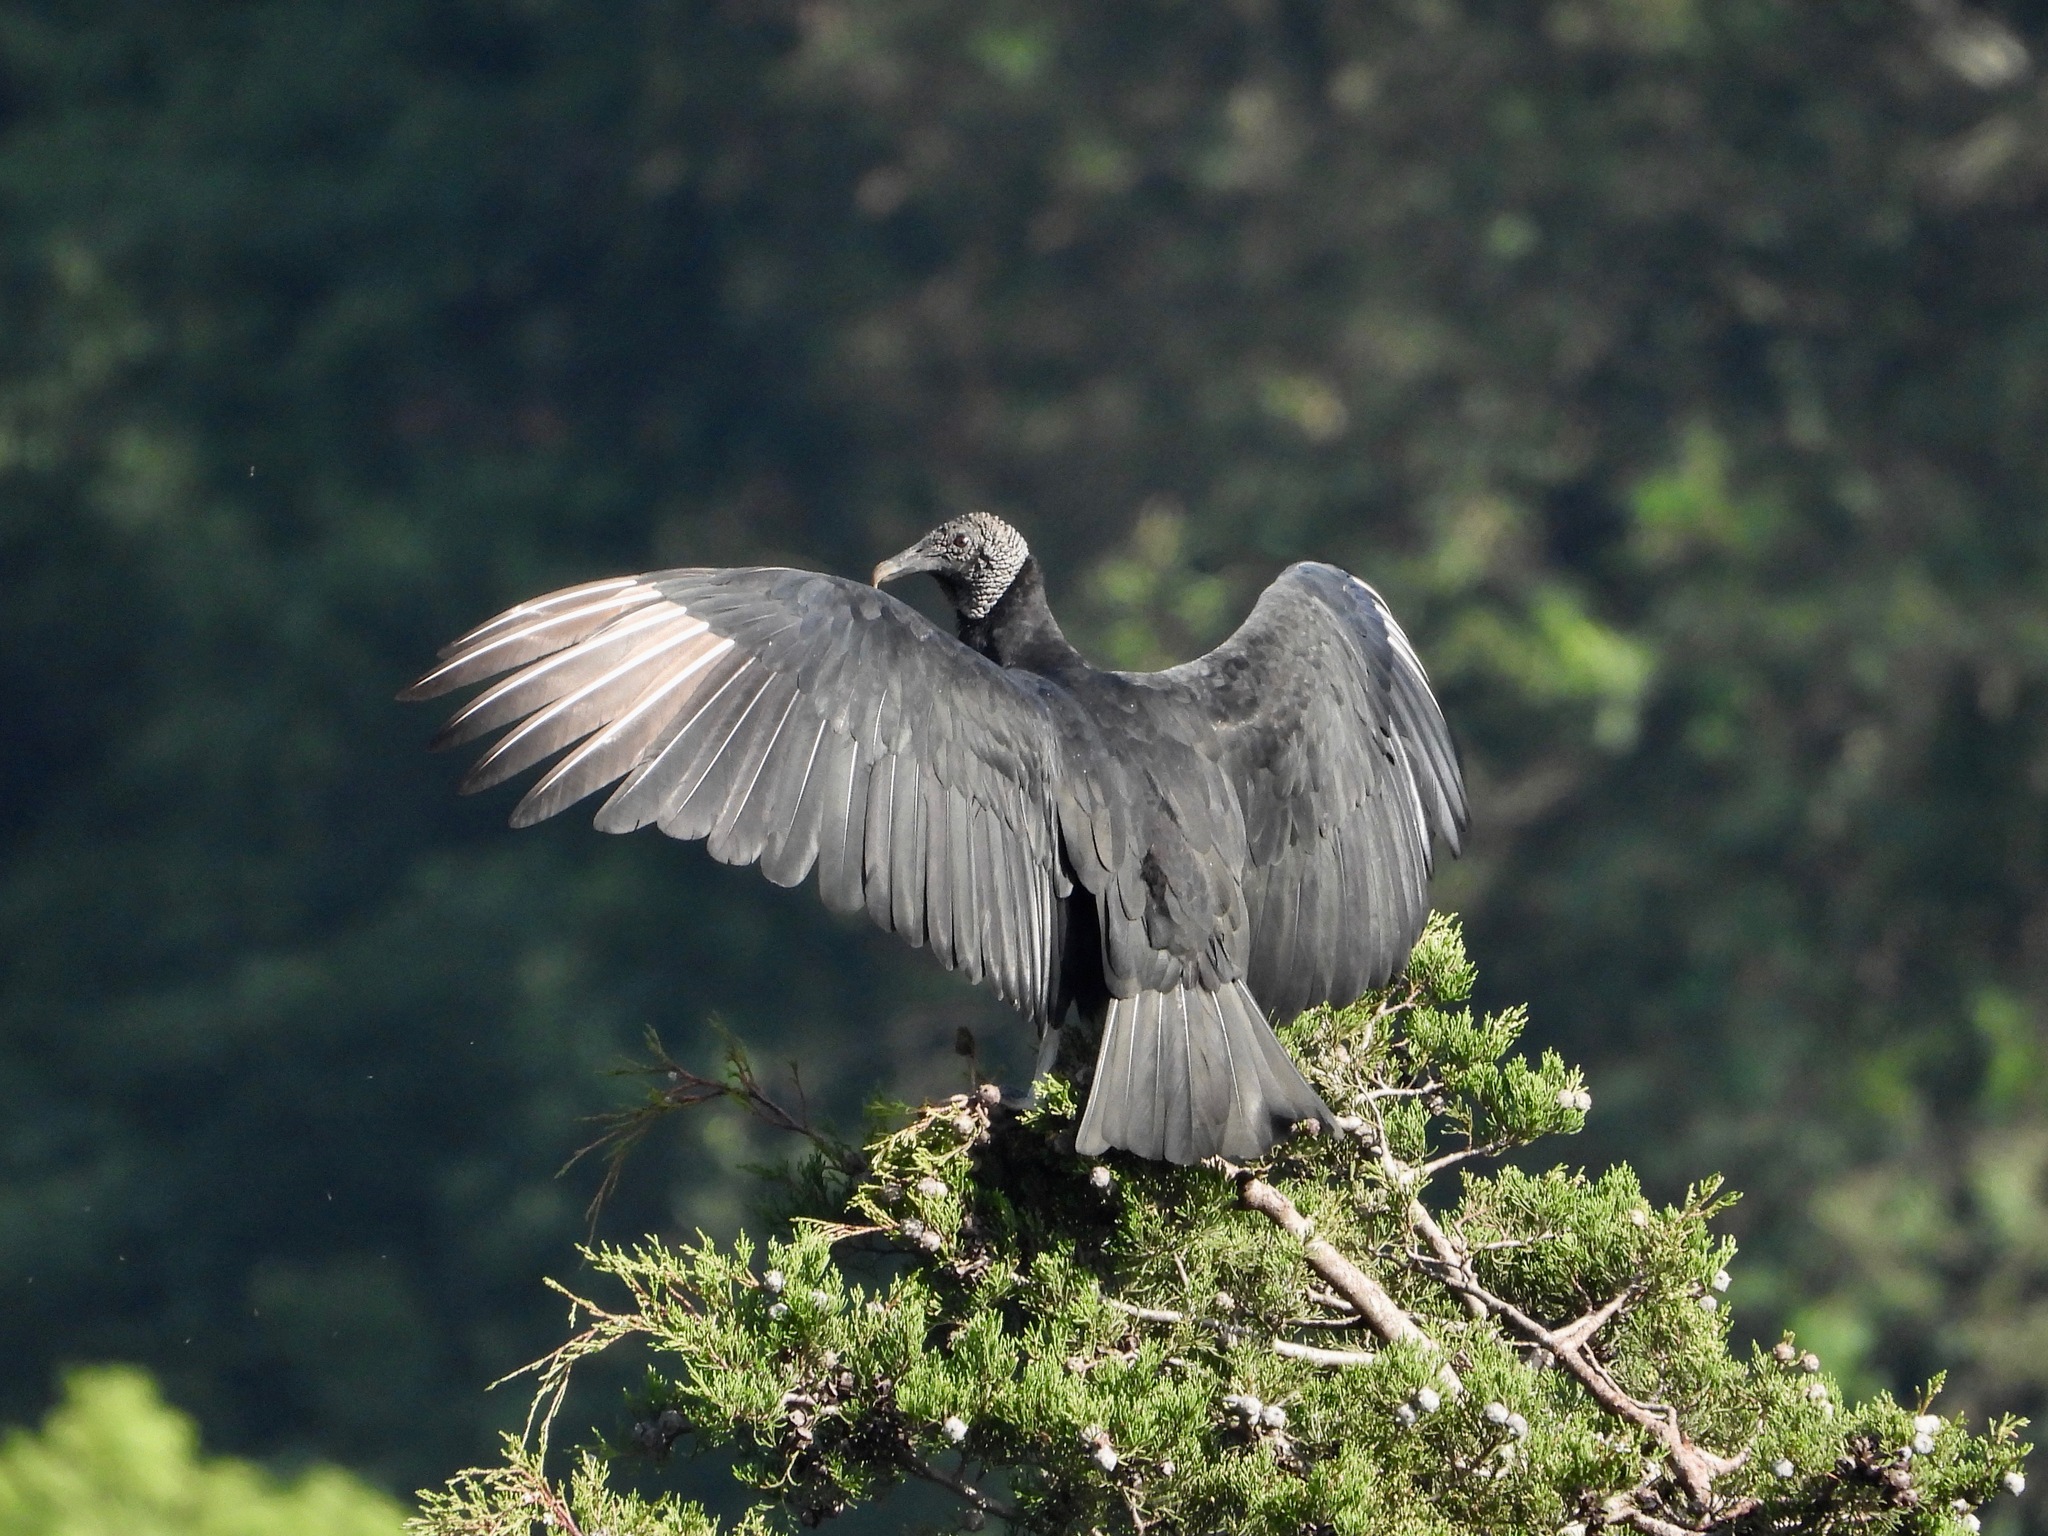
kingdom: Animalia
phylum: Chordata
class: Aves
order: Accipitriformes
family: Cathartidae
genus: Coragyps
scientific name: Coragyps atratus
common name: Black vulture
